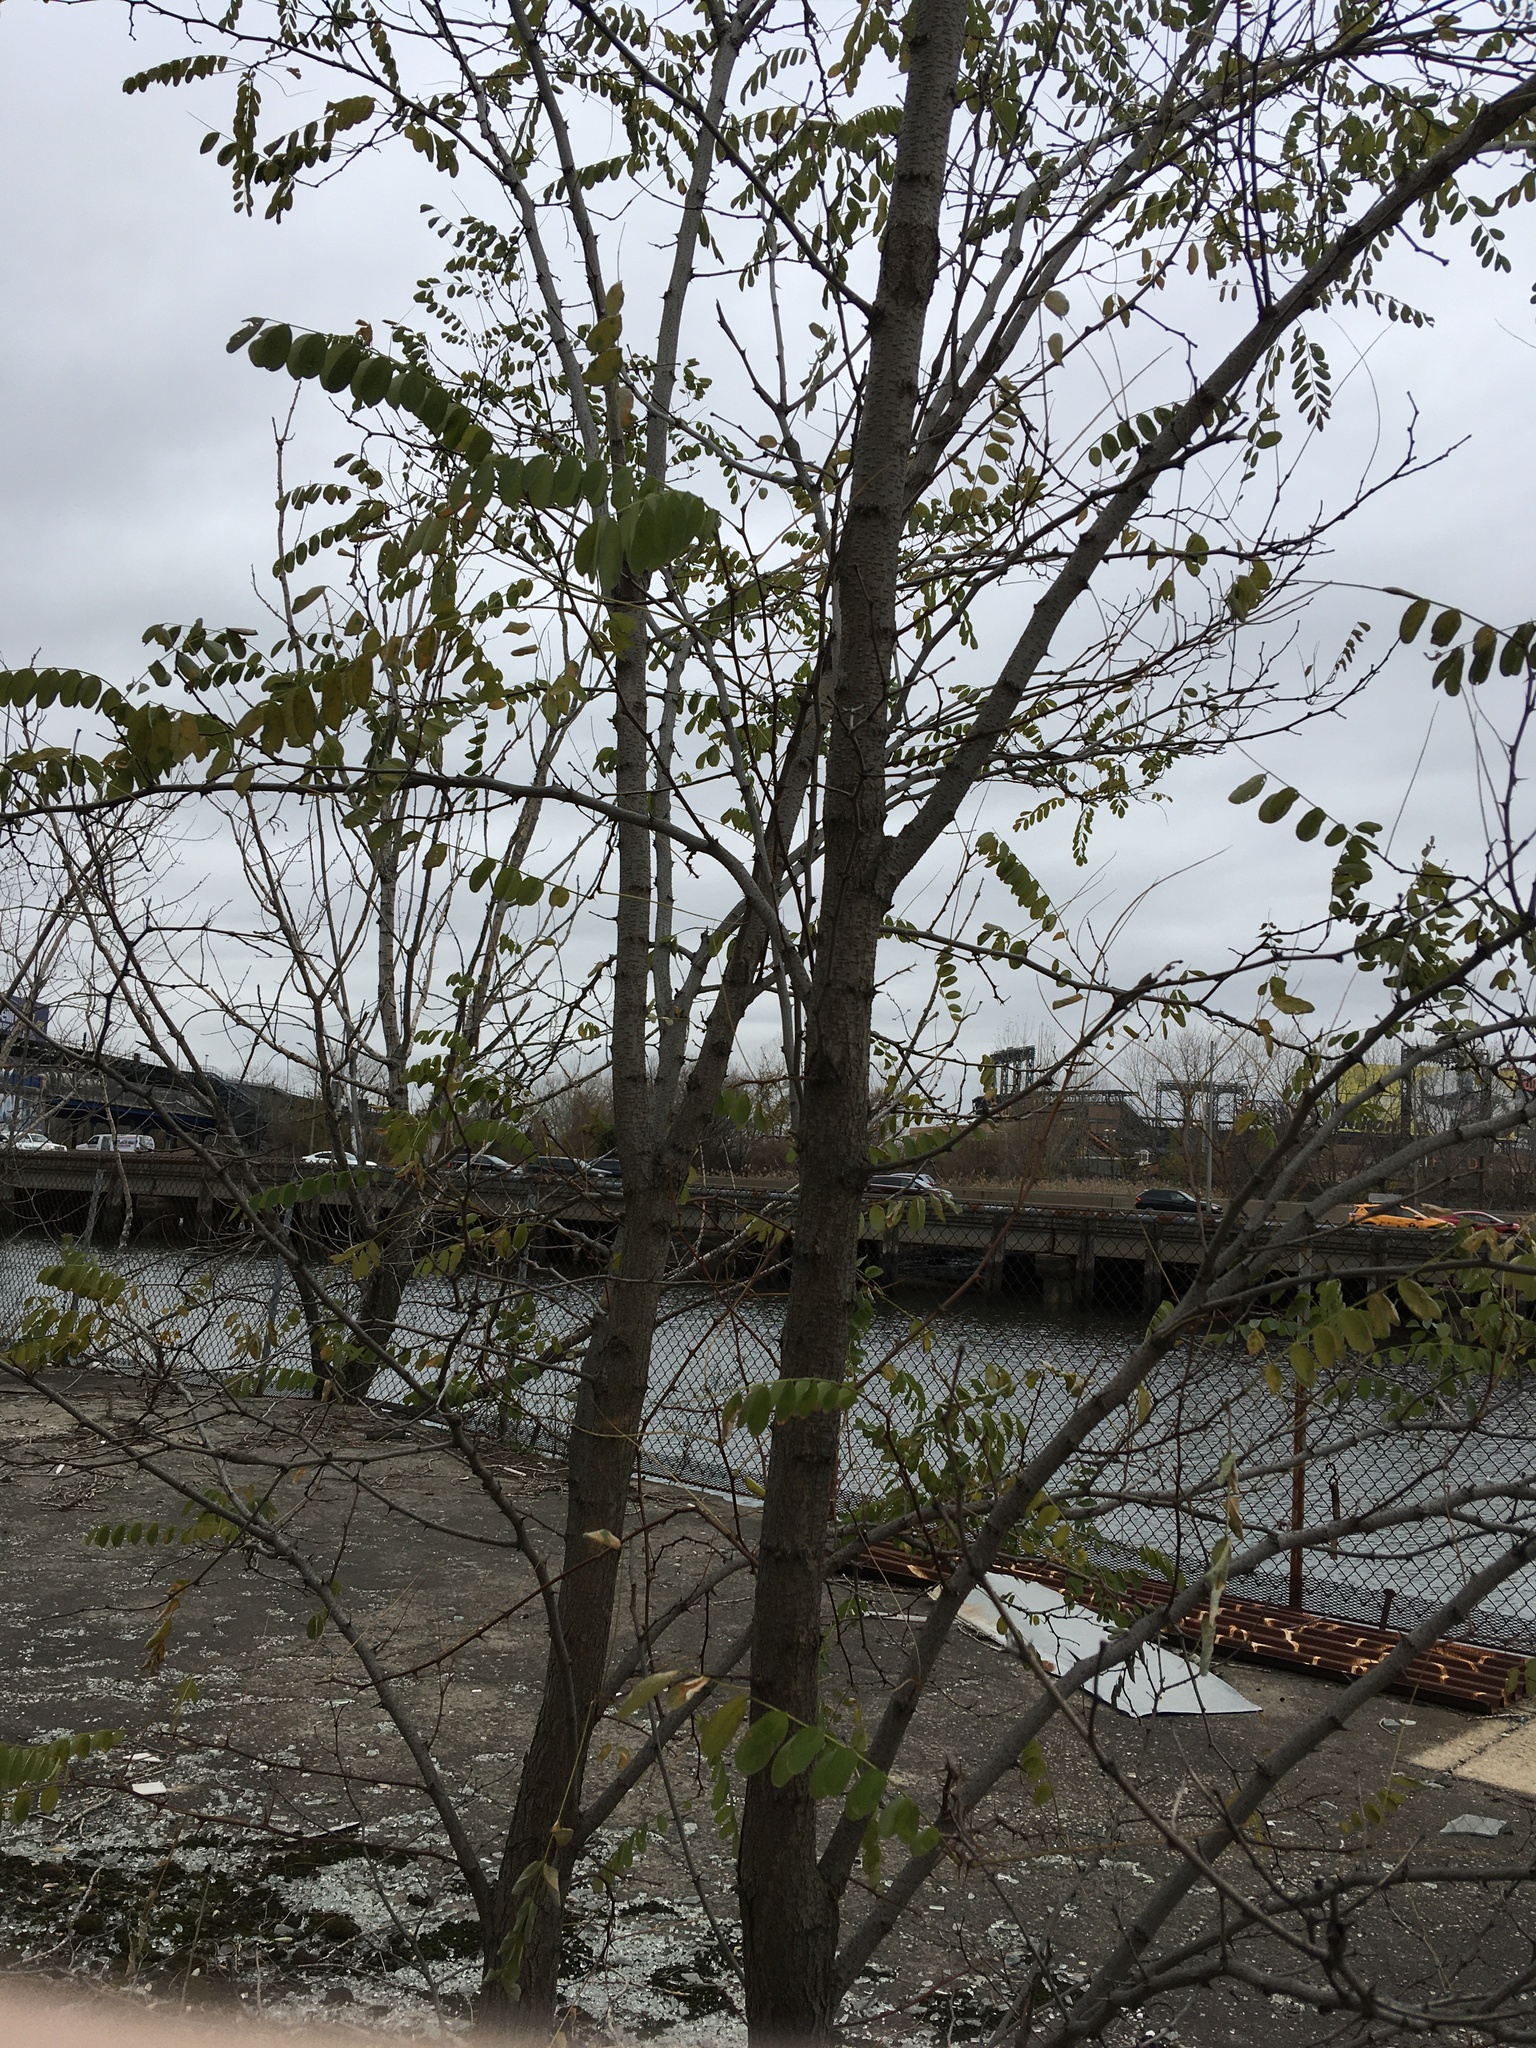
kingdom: Plantae
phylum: Tracheophyta
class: Magnoliopsida
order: Fabales
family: Fabaceae
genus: Robinia
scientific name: Robinia pseudoacacia
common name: Black locust
